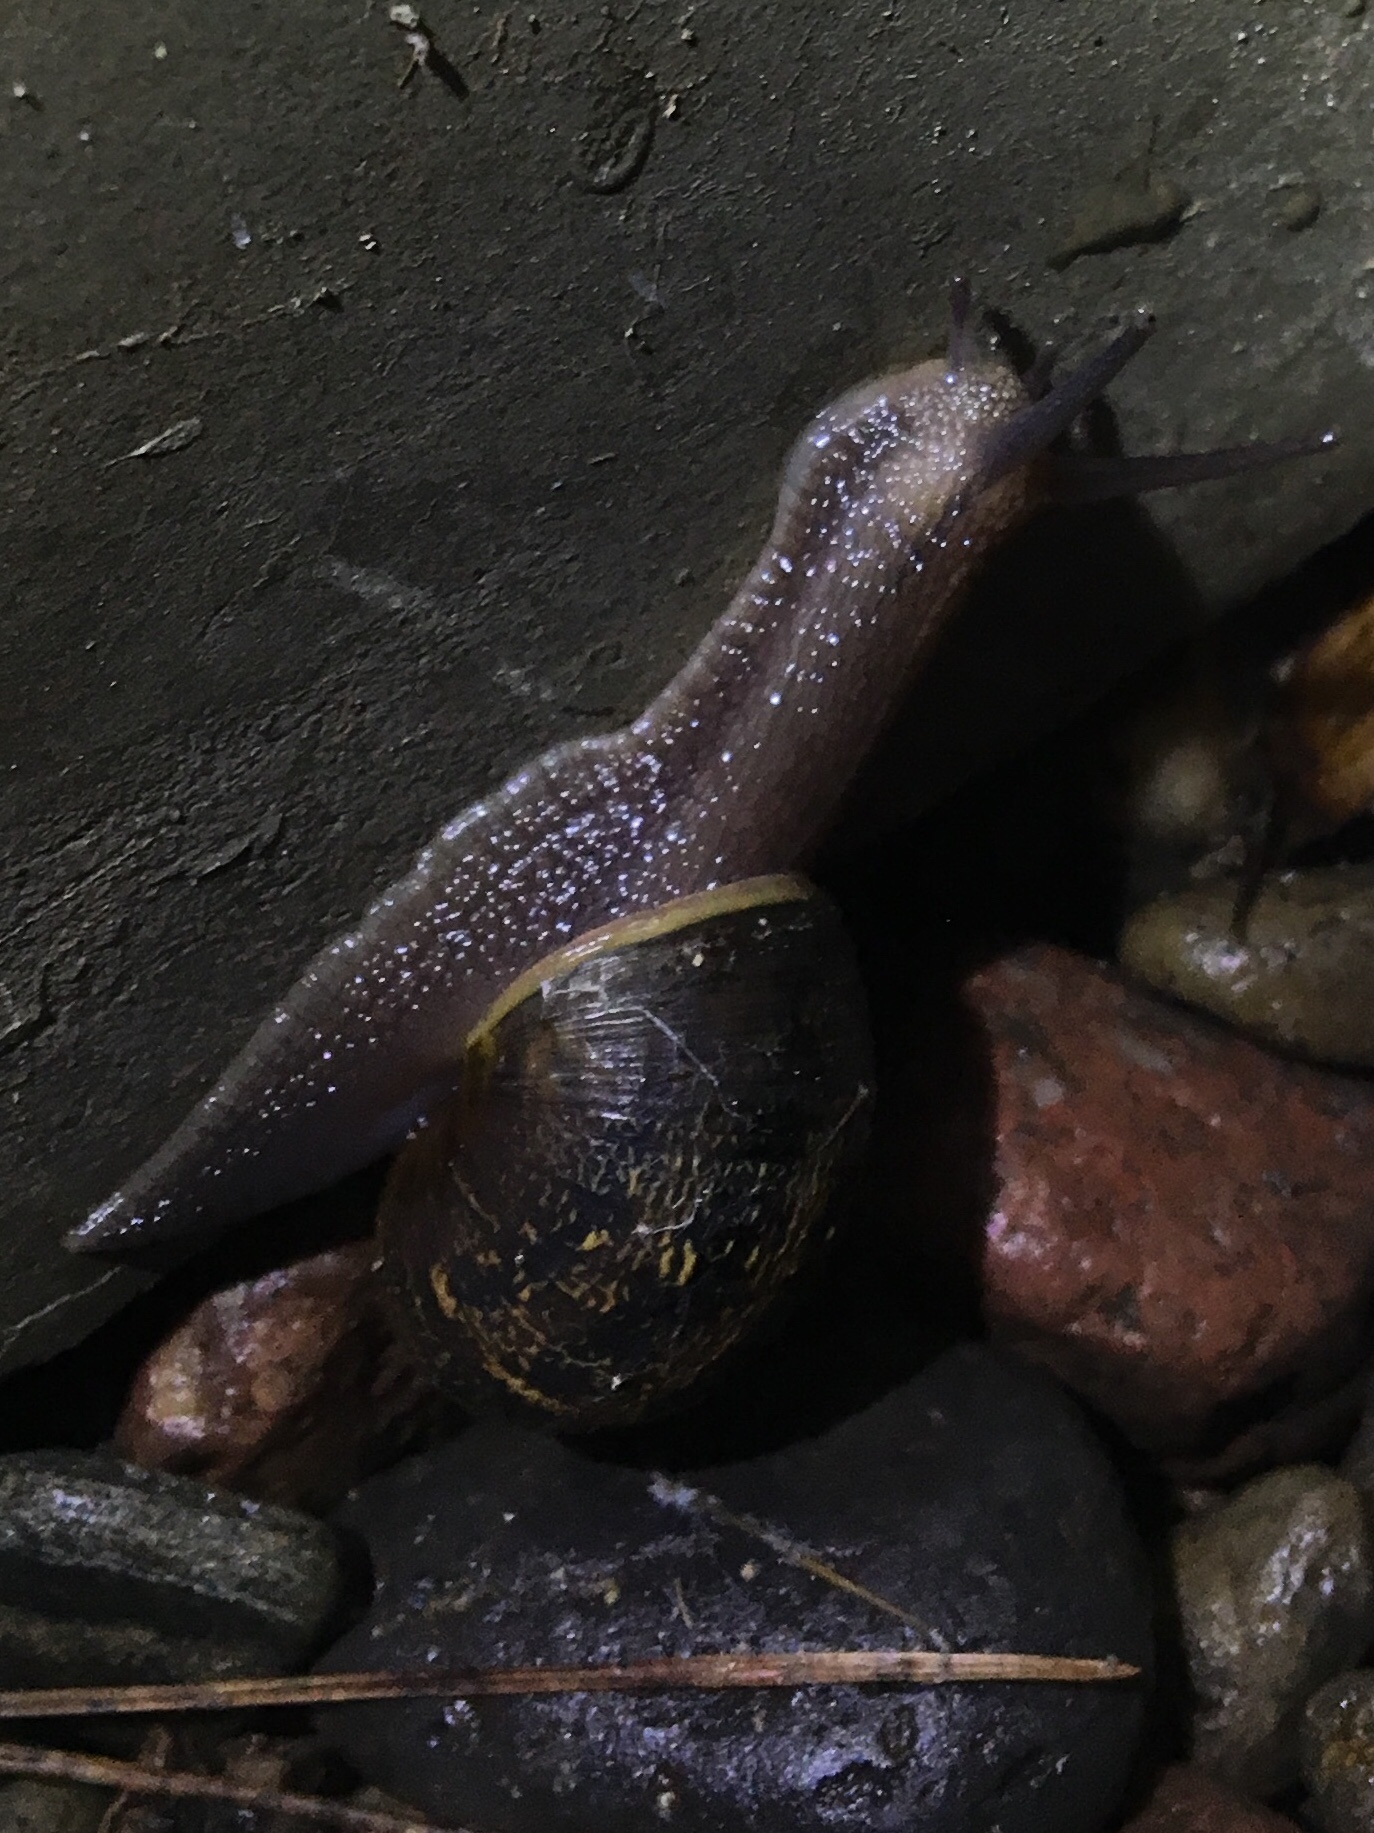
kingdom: Animalia
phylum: Mollusca
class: Gastropoda
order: Stylommatophora
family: Helicidae
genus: Cornu
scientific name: Cornu aspersum
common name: Brown garden snail
